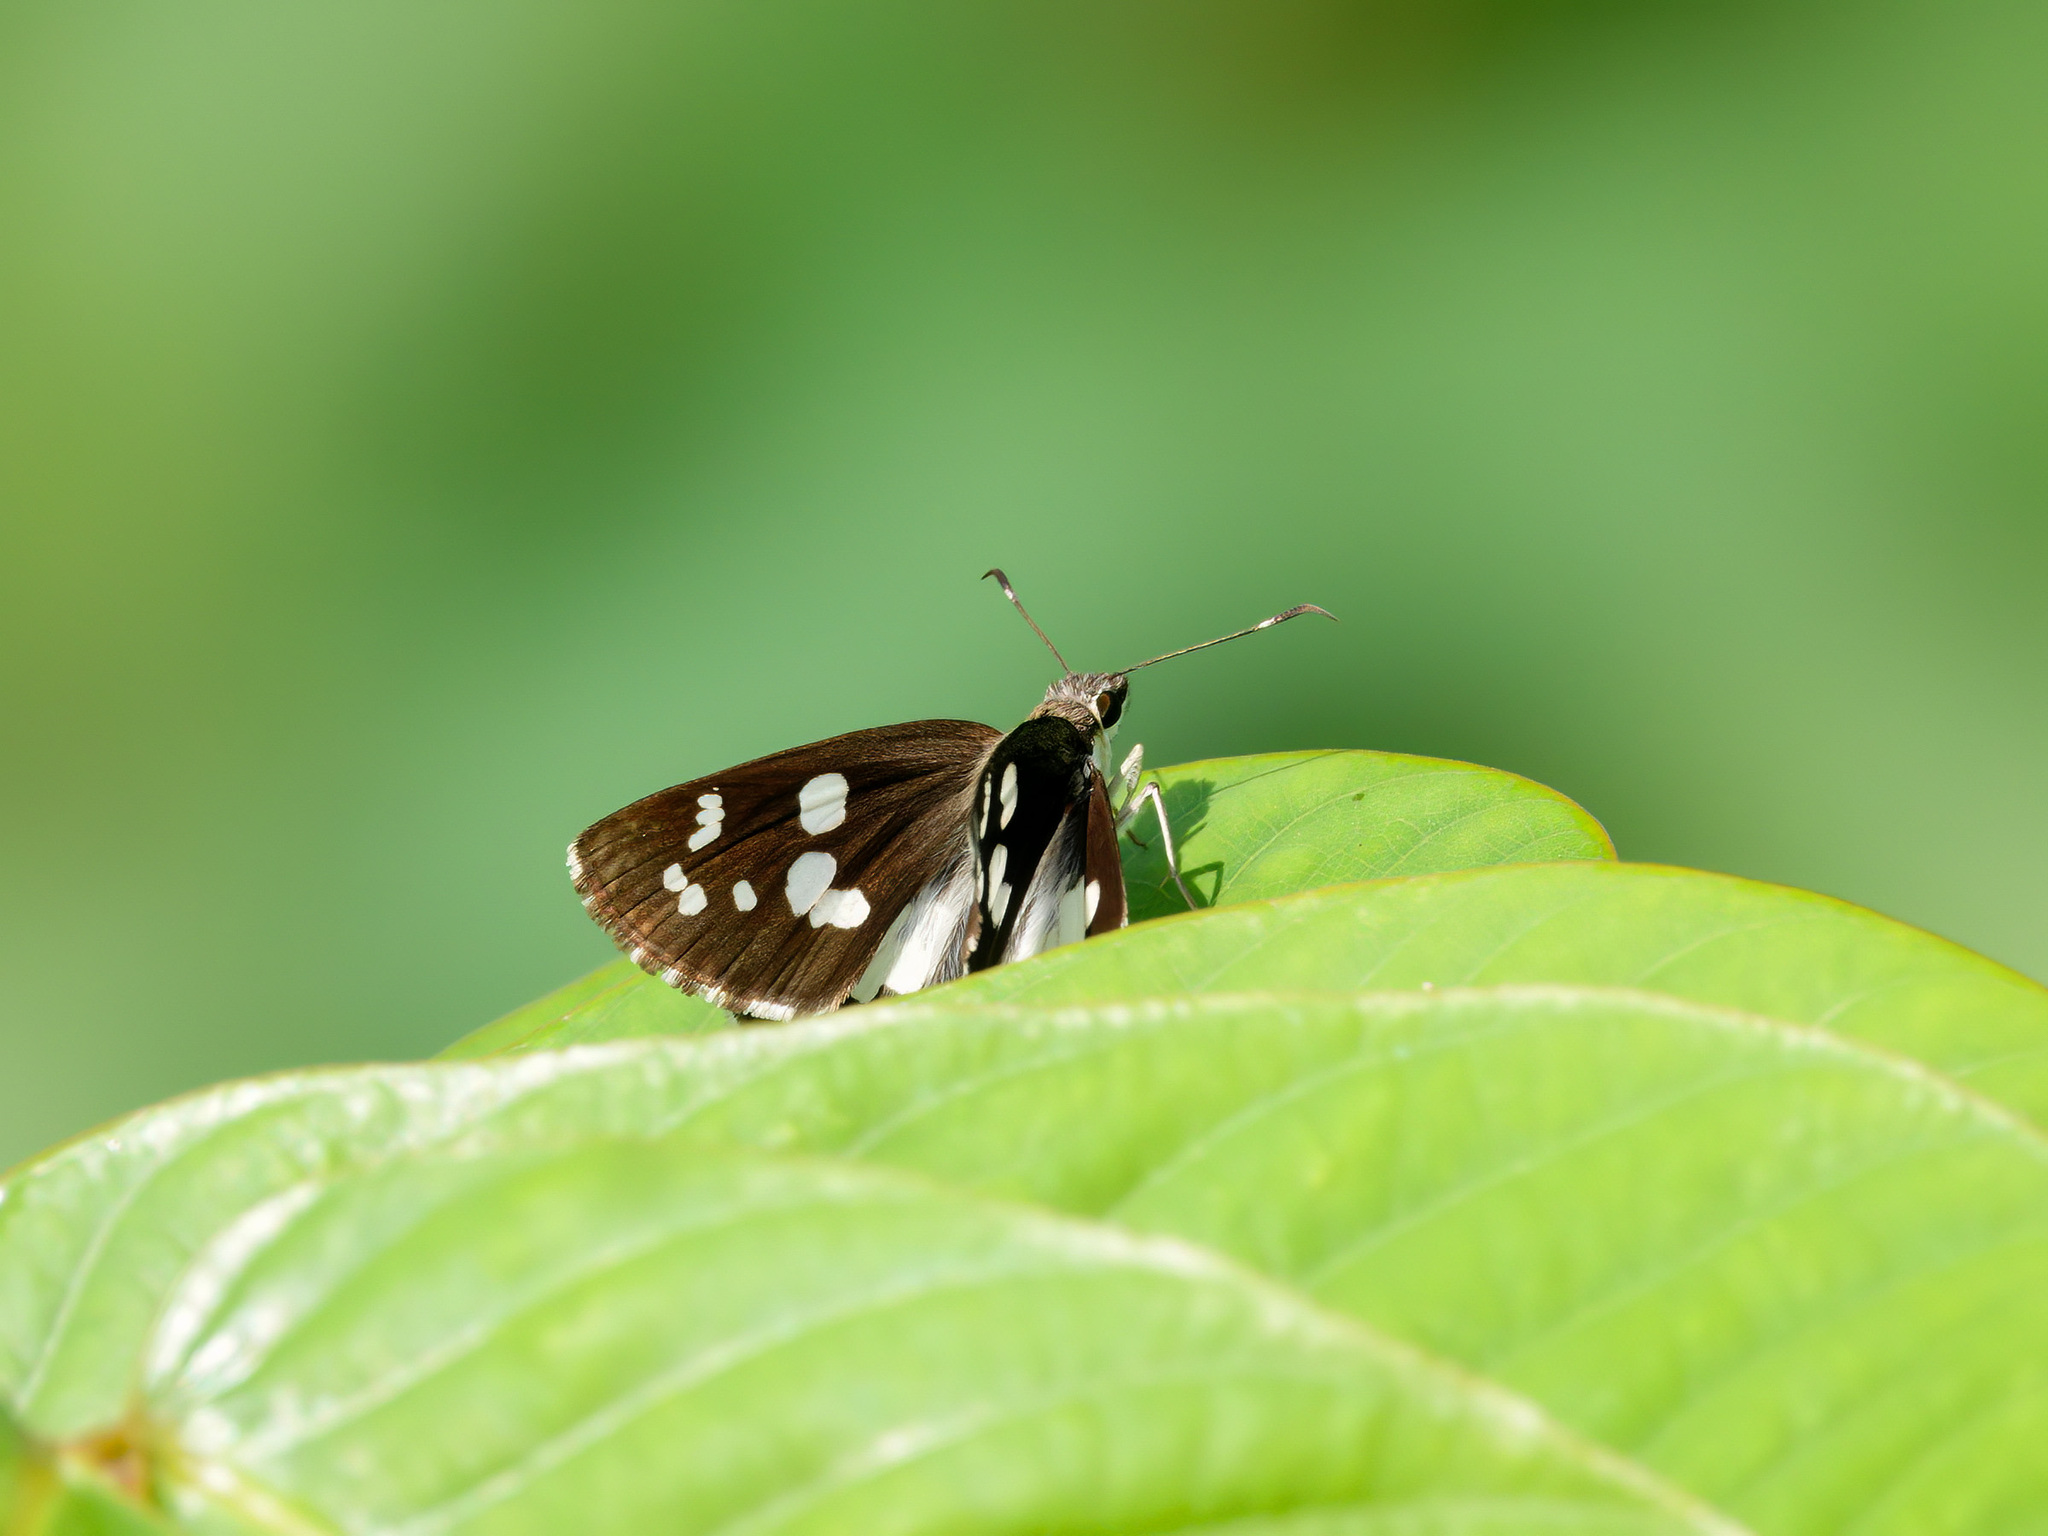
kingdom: Animalia
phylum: Arthropoda
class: Insecta
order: Lepidoptera
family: Hesperiidae
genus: Udaspes
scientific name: Udaspes folus
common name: Grass demon
